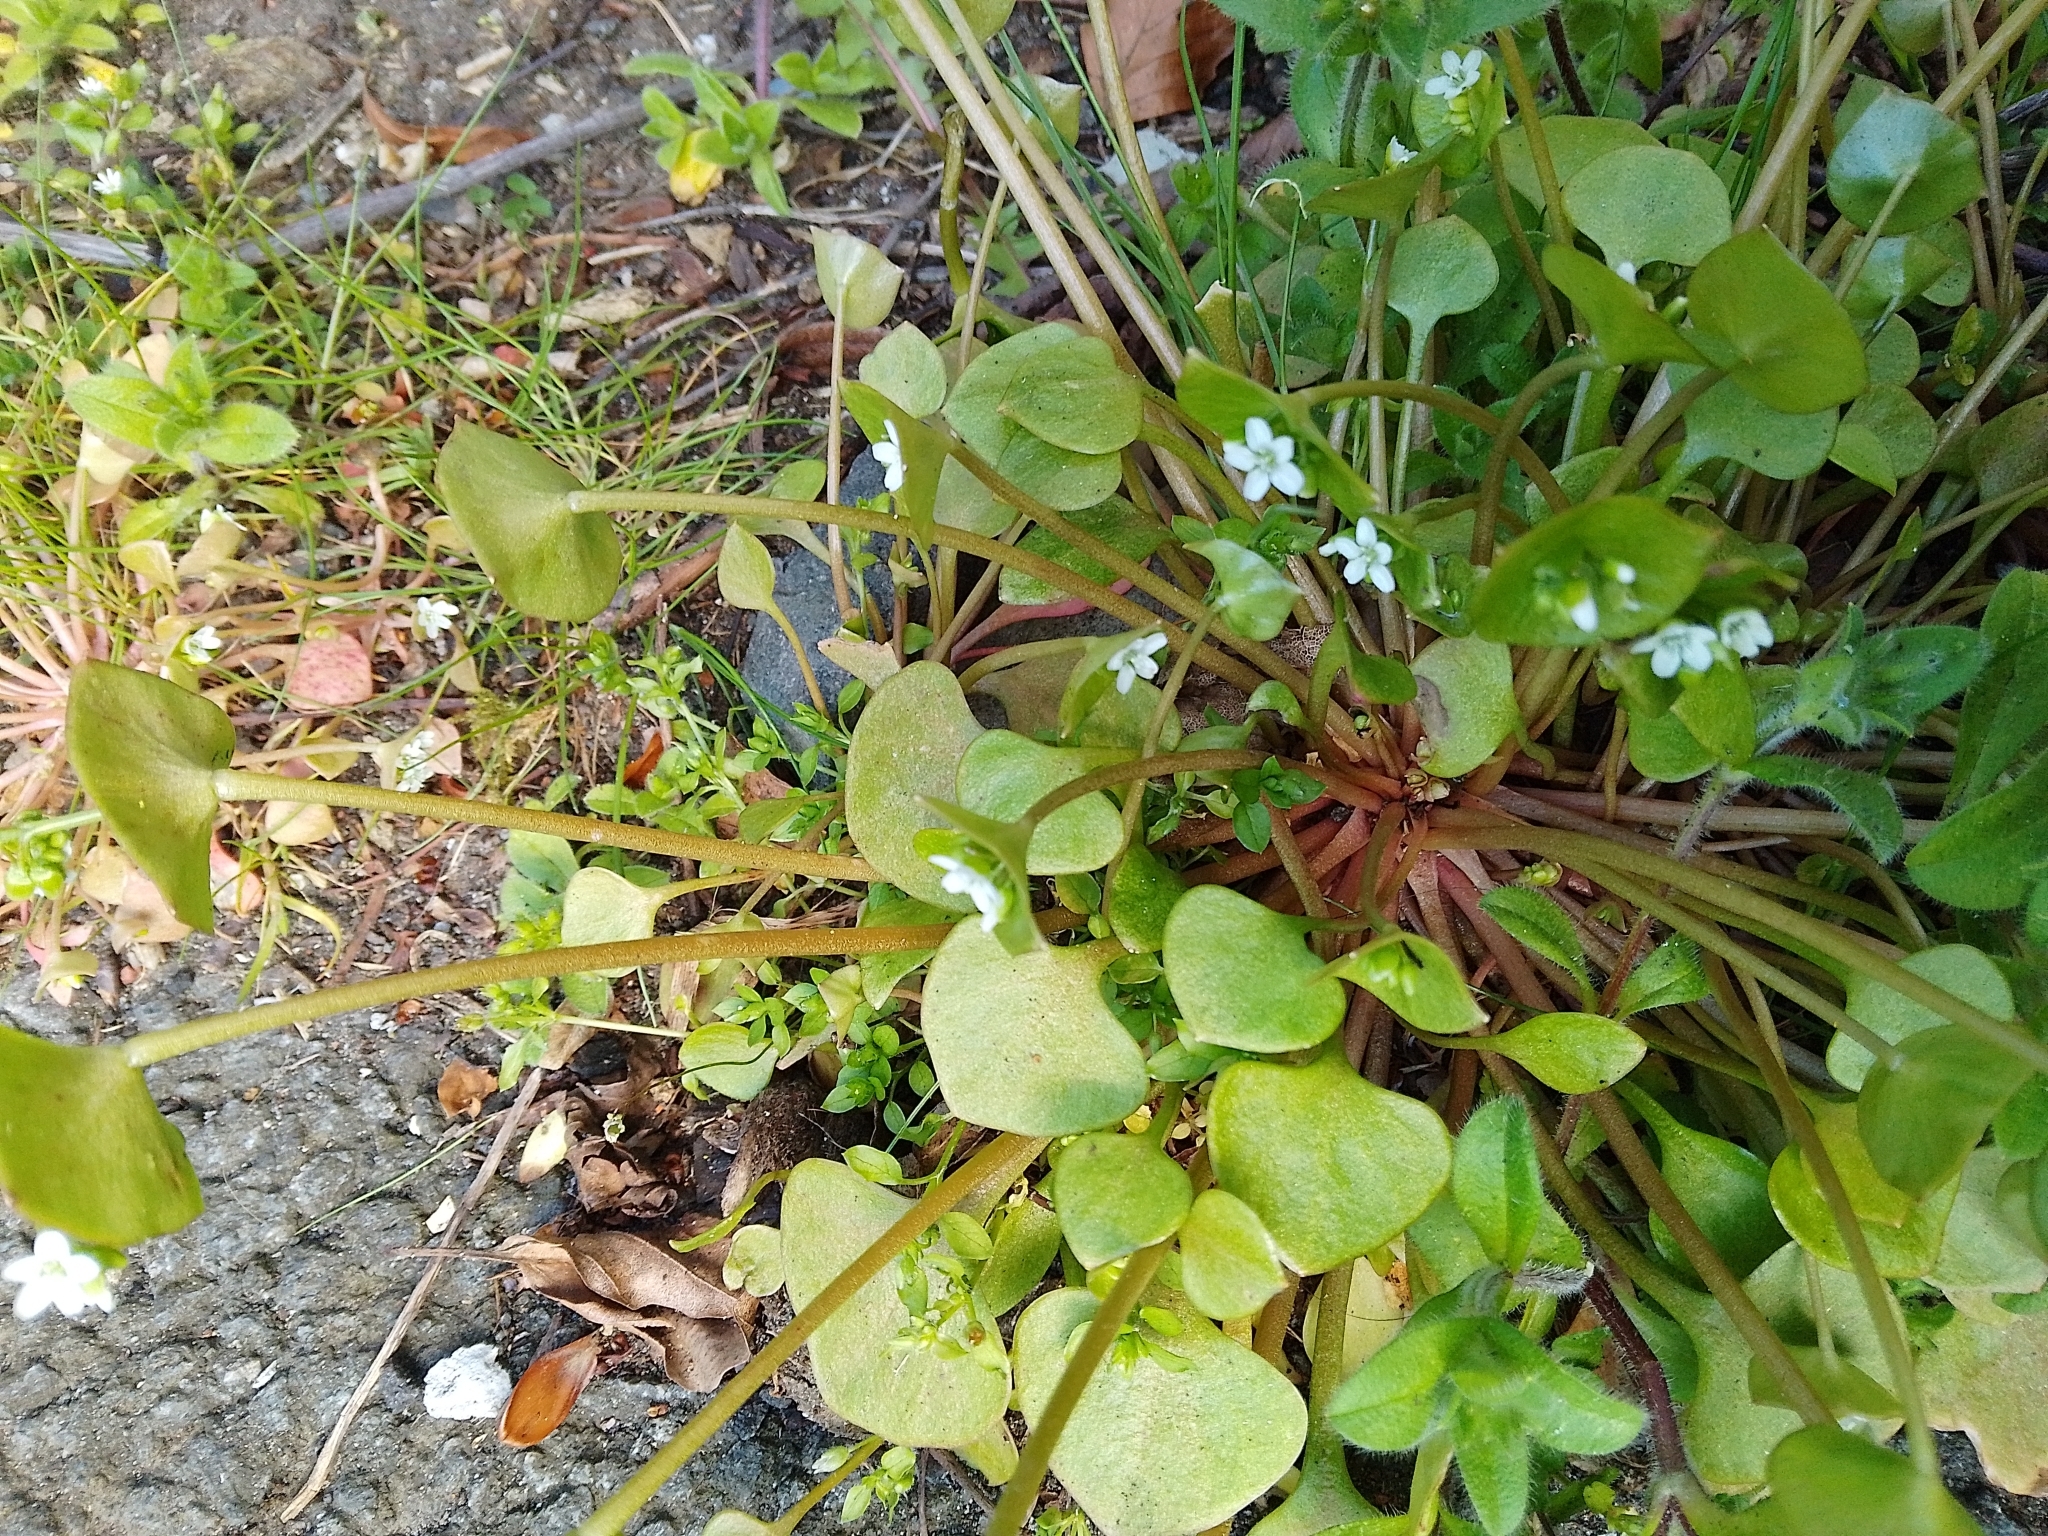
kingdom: Plantae
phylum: Tracheophyta
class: Magnoliopsida
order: Caryophyllales
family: Montiaceae
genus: Claytonia
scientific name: Claytonia perfoliata
